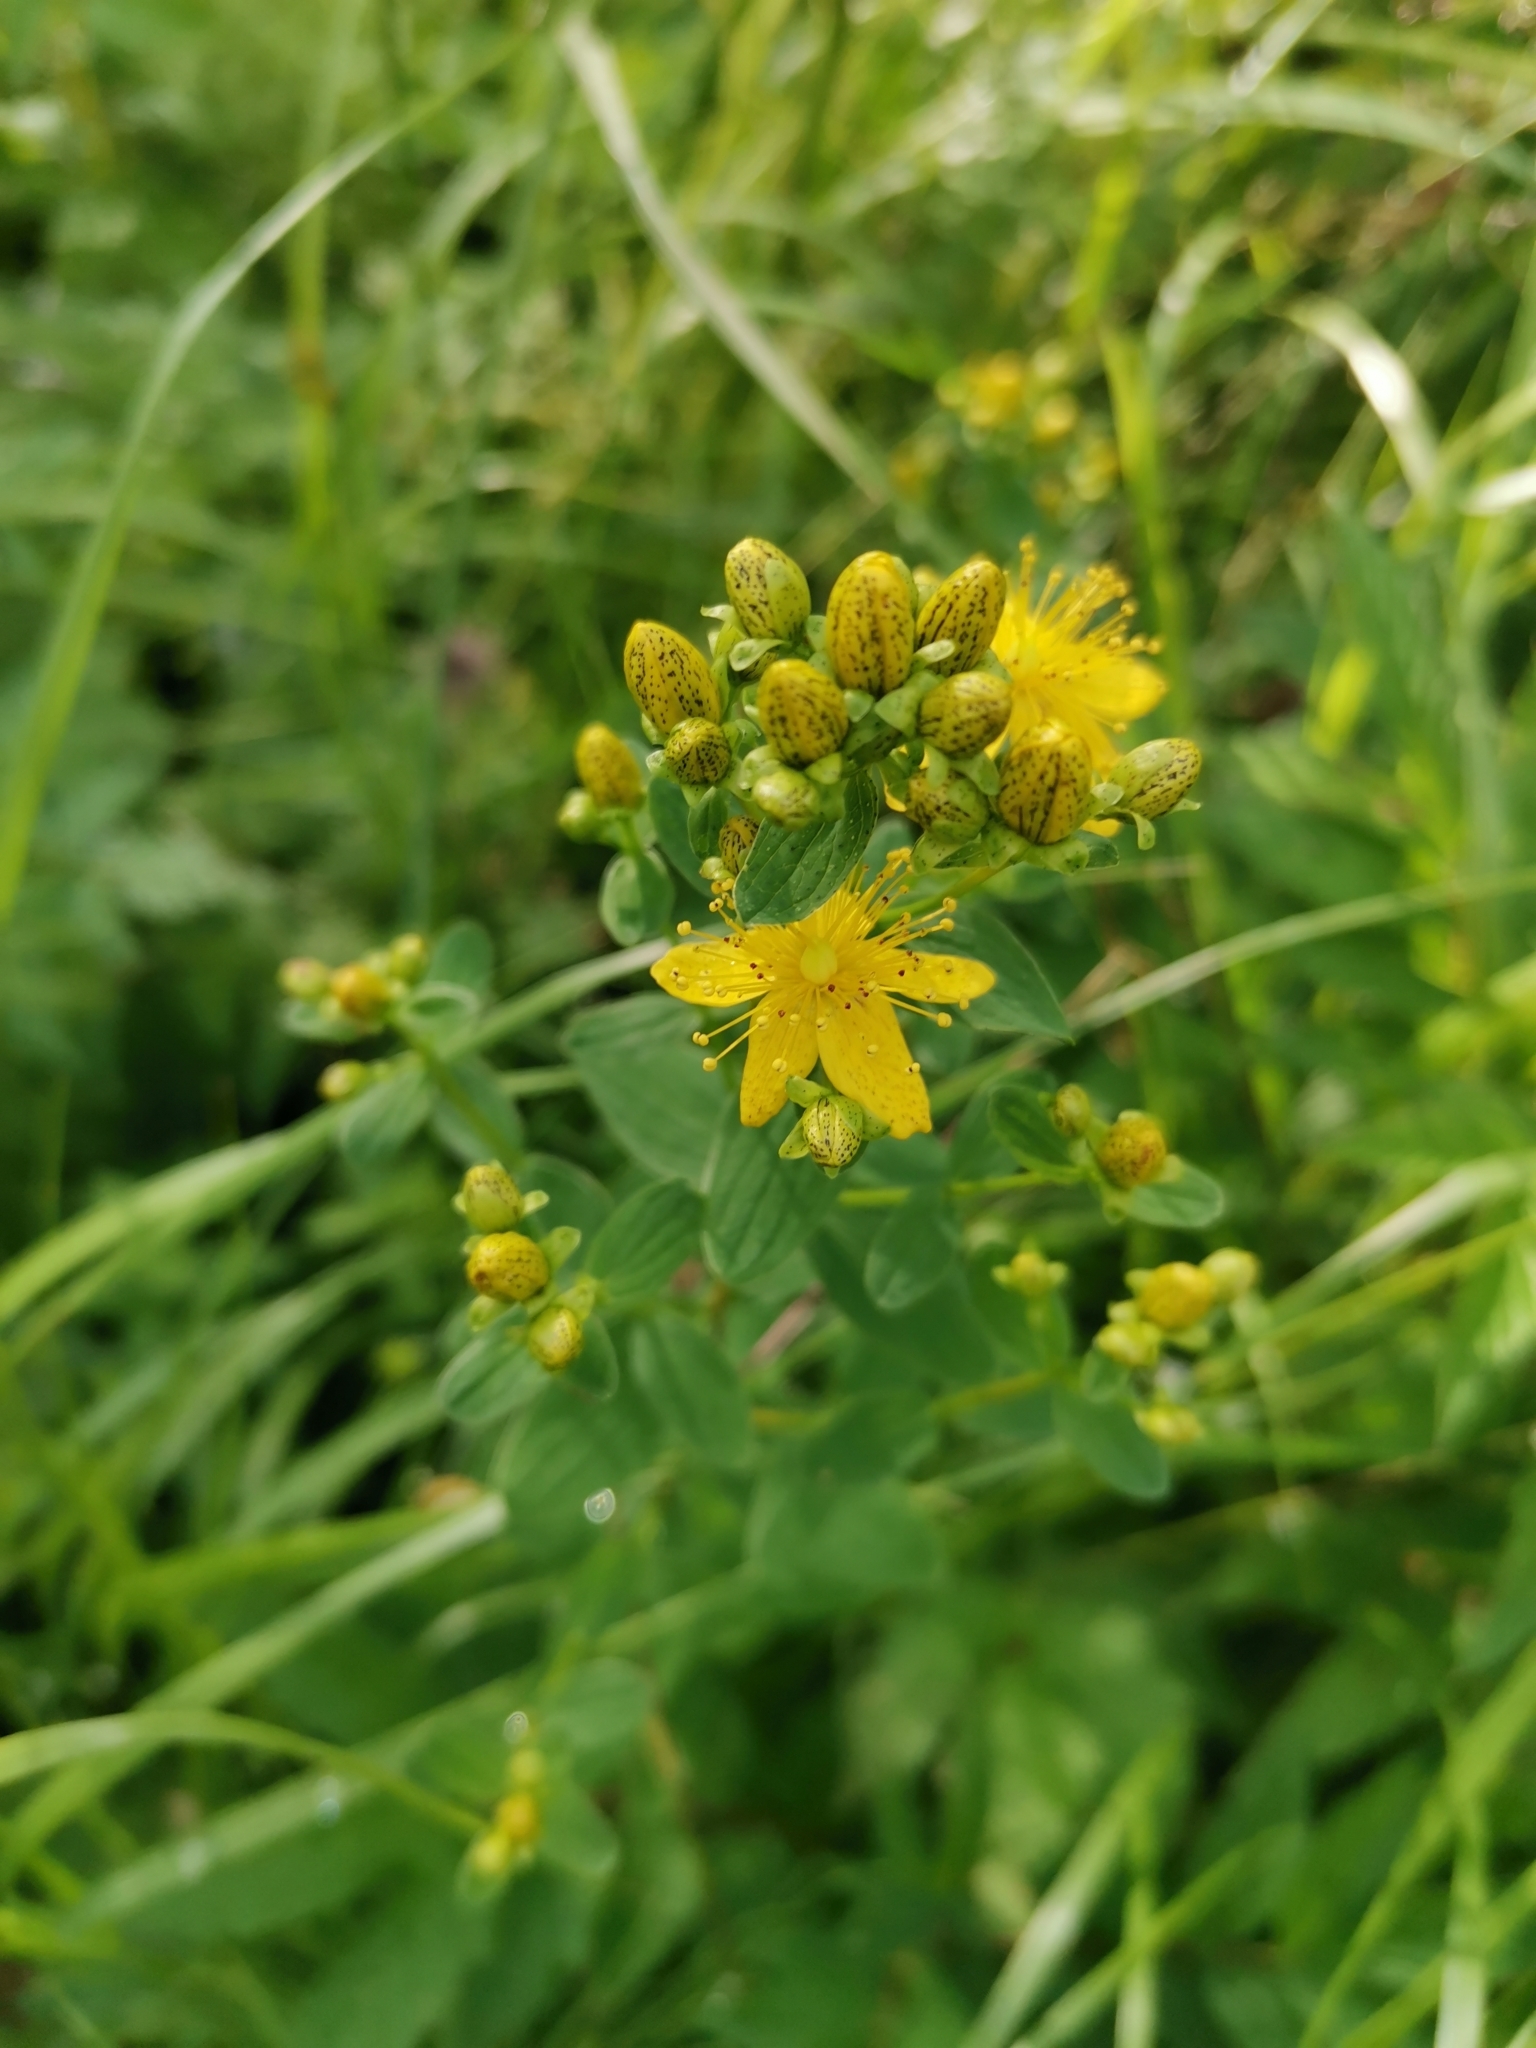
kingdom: Plantae
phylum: Tracheophyta
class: Magnoliopsida
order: Malpighiales
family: Hypericaceae
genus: Hypericum
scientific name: Hypericum maculatum
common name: Imperforate st. john's-wort
